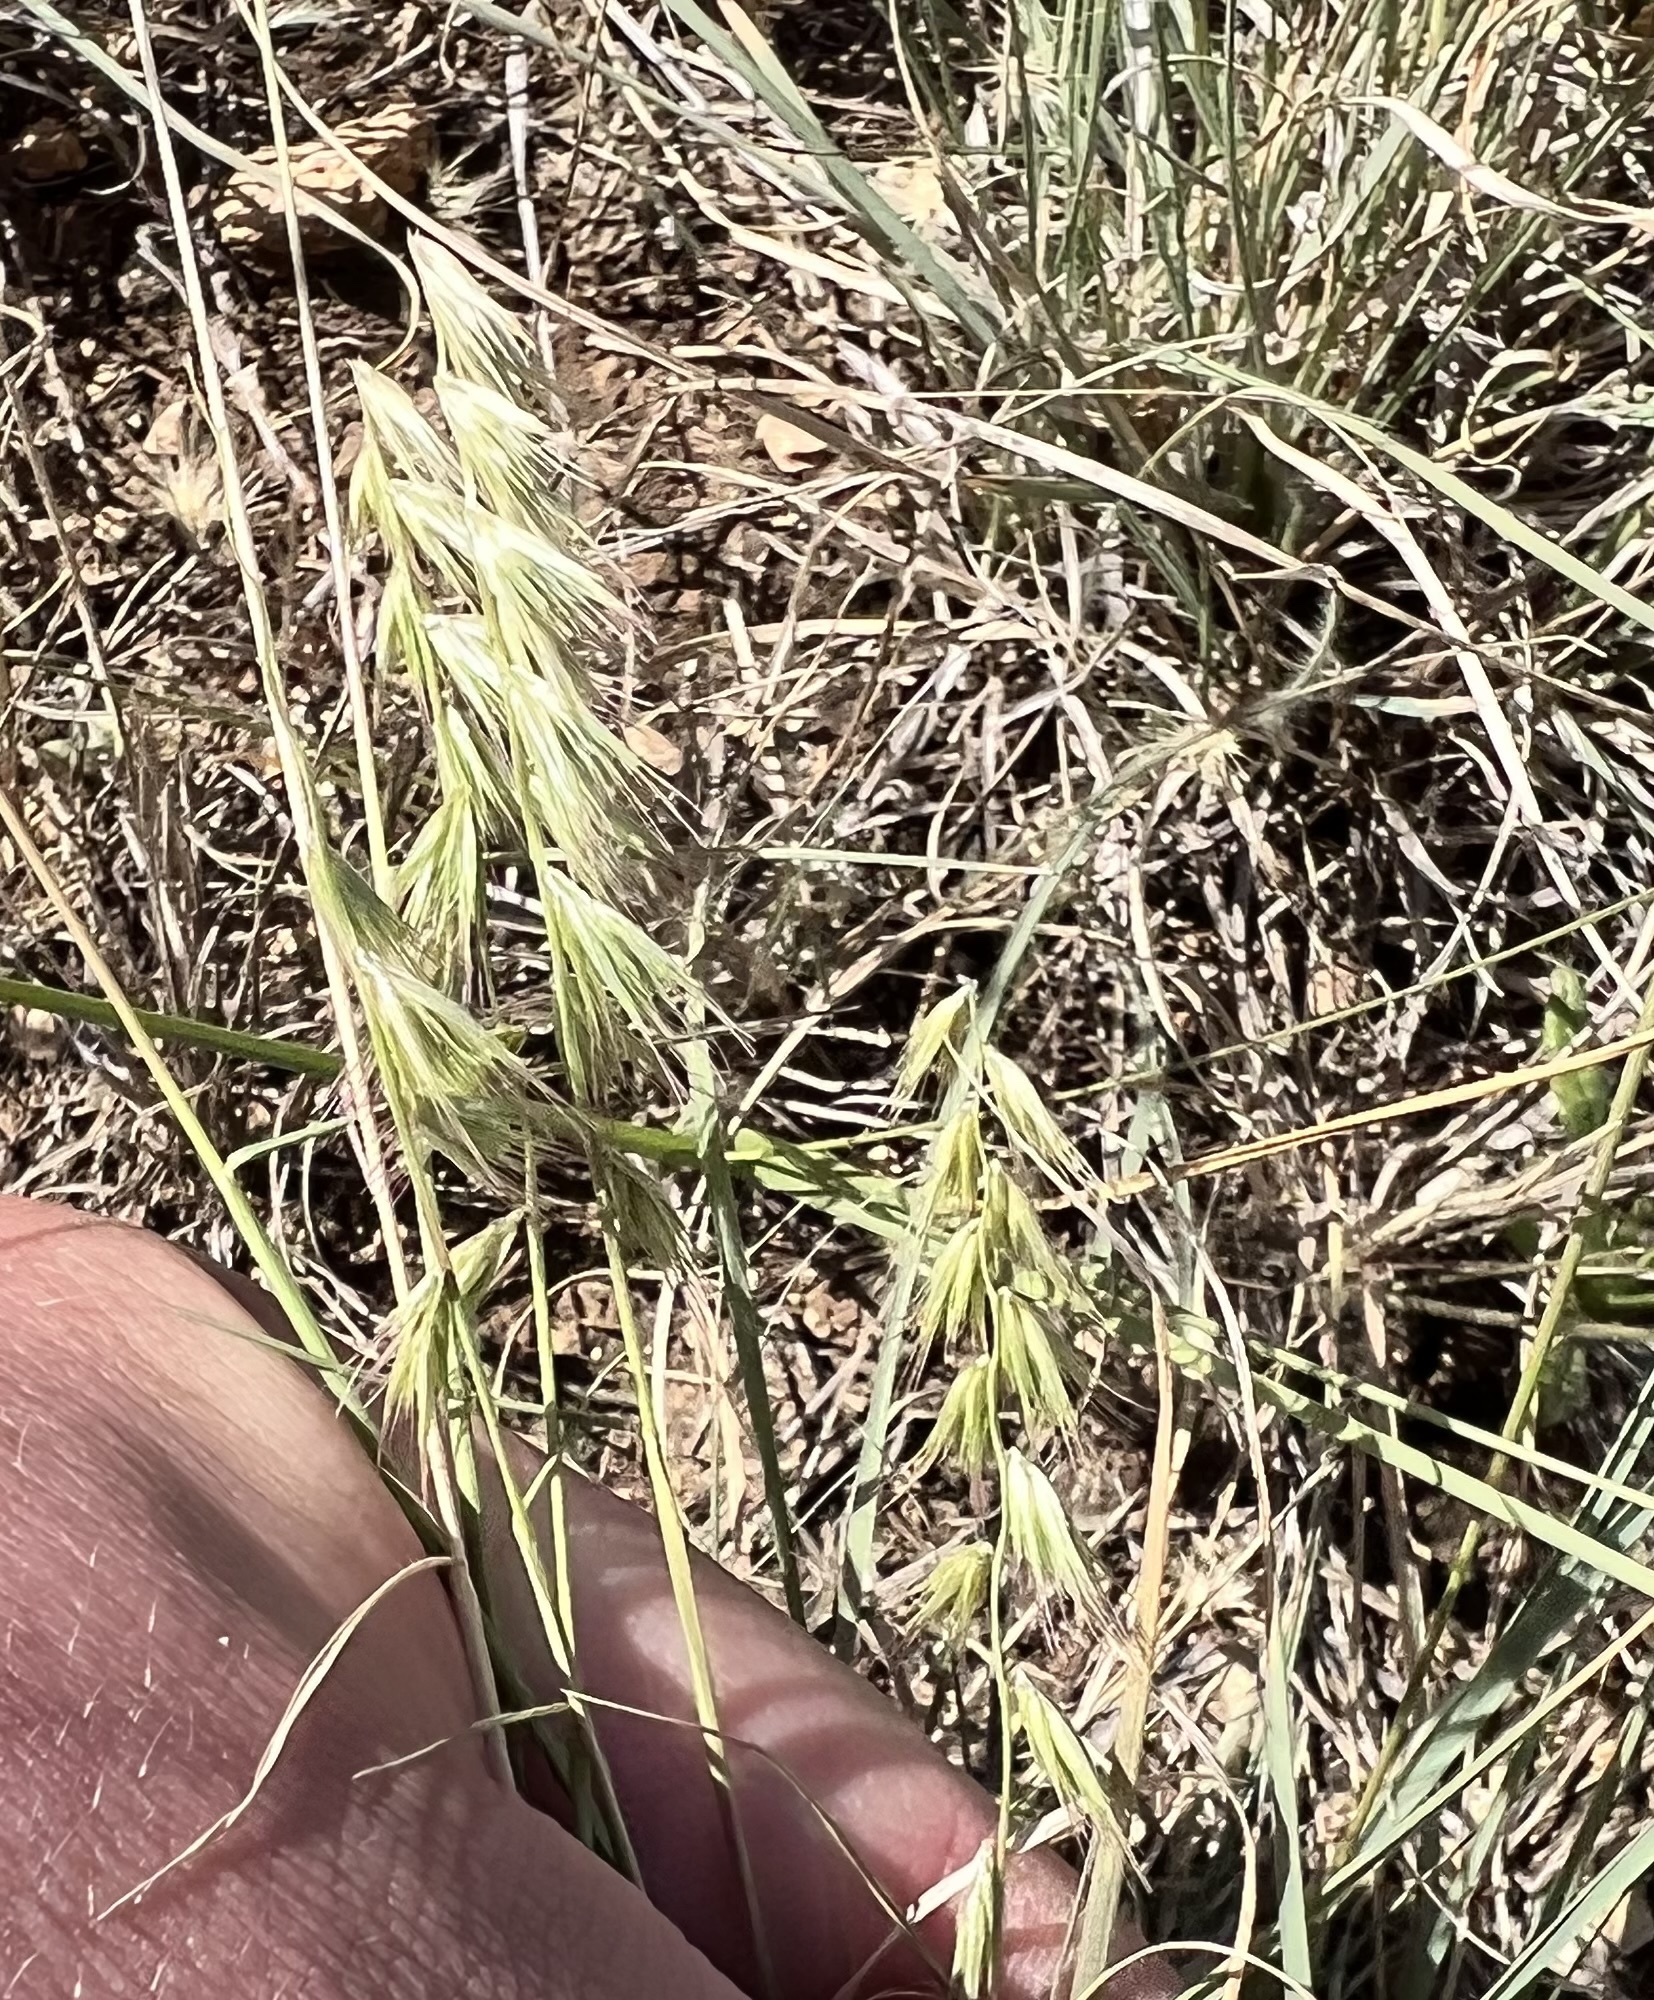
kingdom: Plantae
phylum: Tracheophyta
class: Liliopsida
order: Poales
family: Poaceae
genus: Bouteloua
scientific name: Bouteloua rigidiseta
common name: Texas grama
